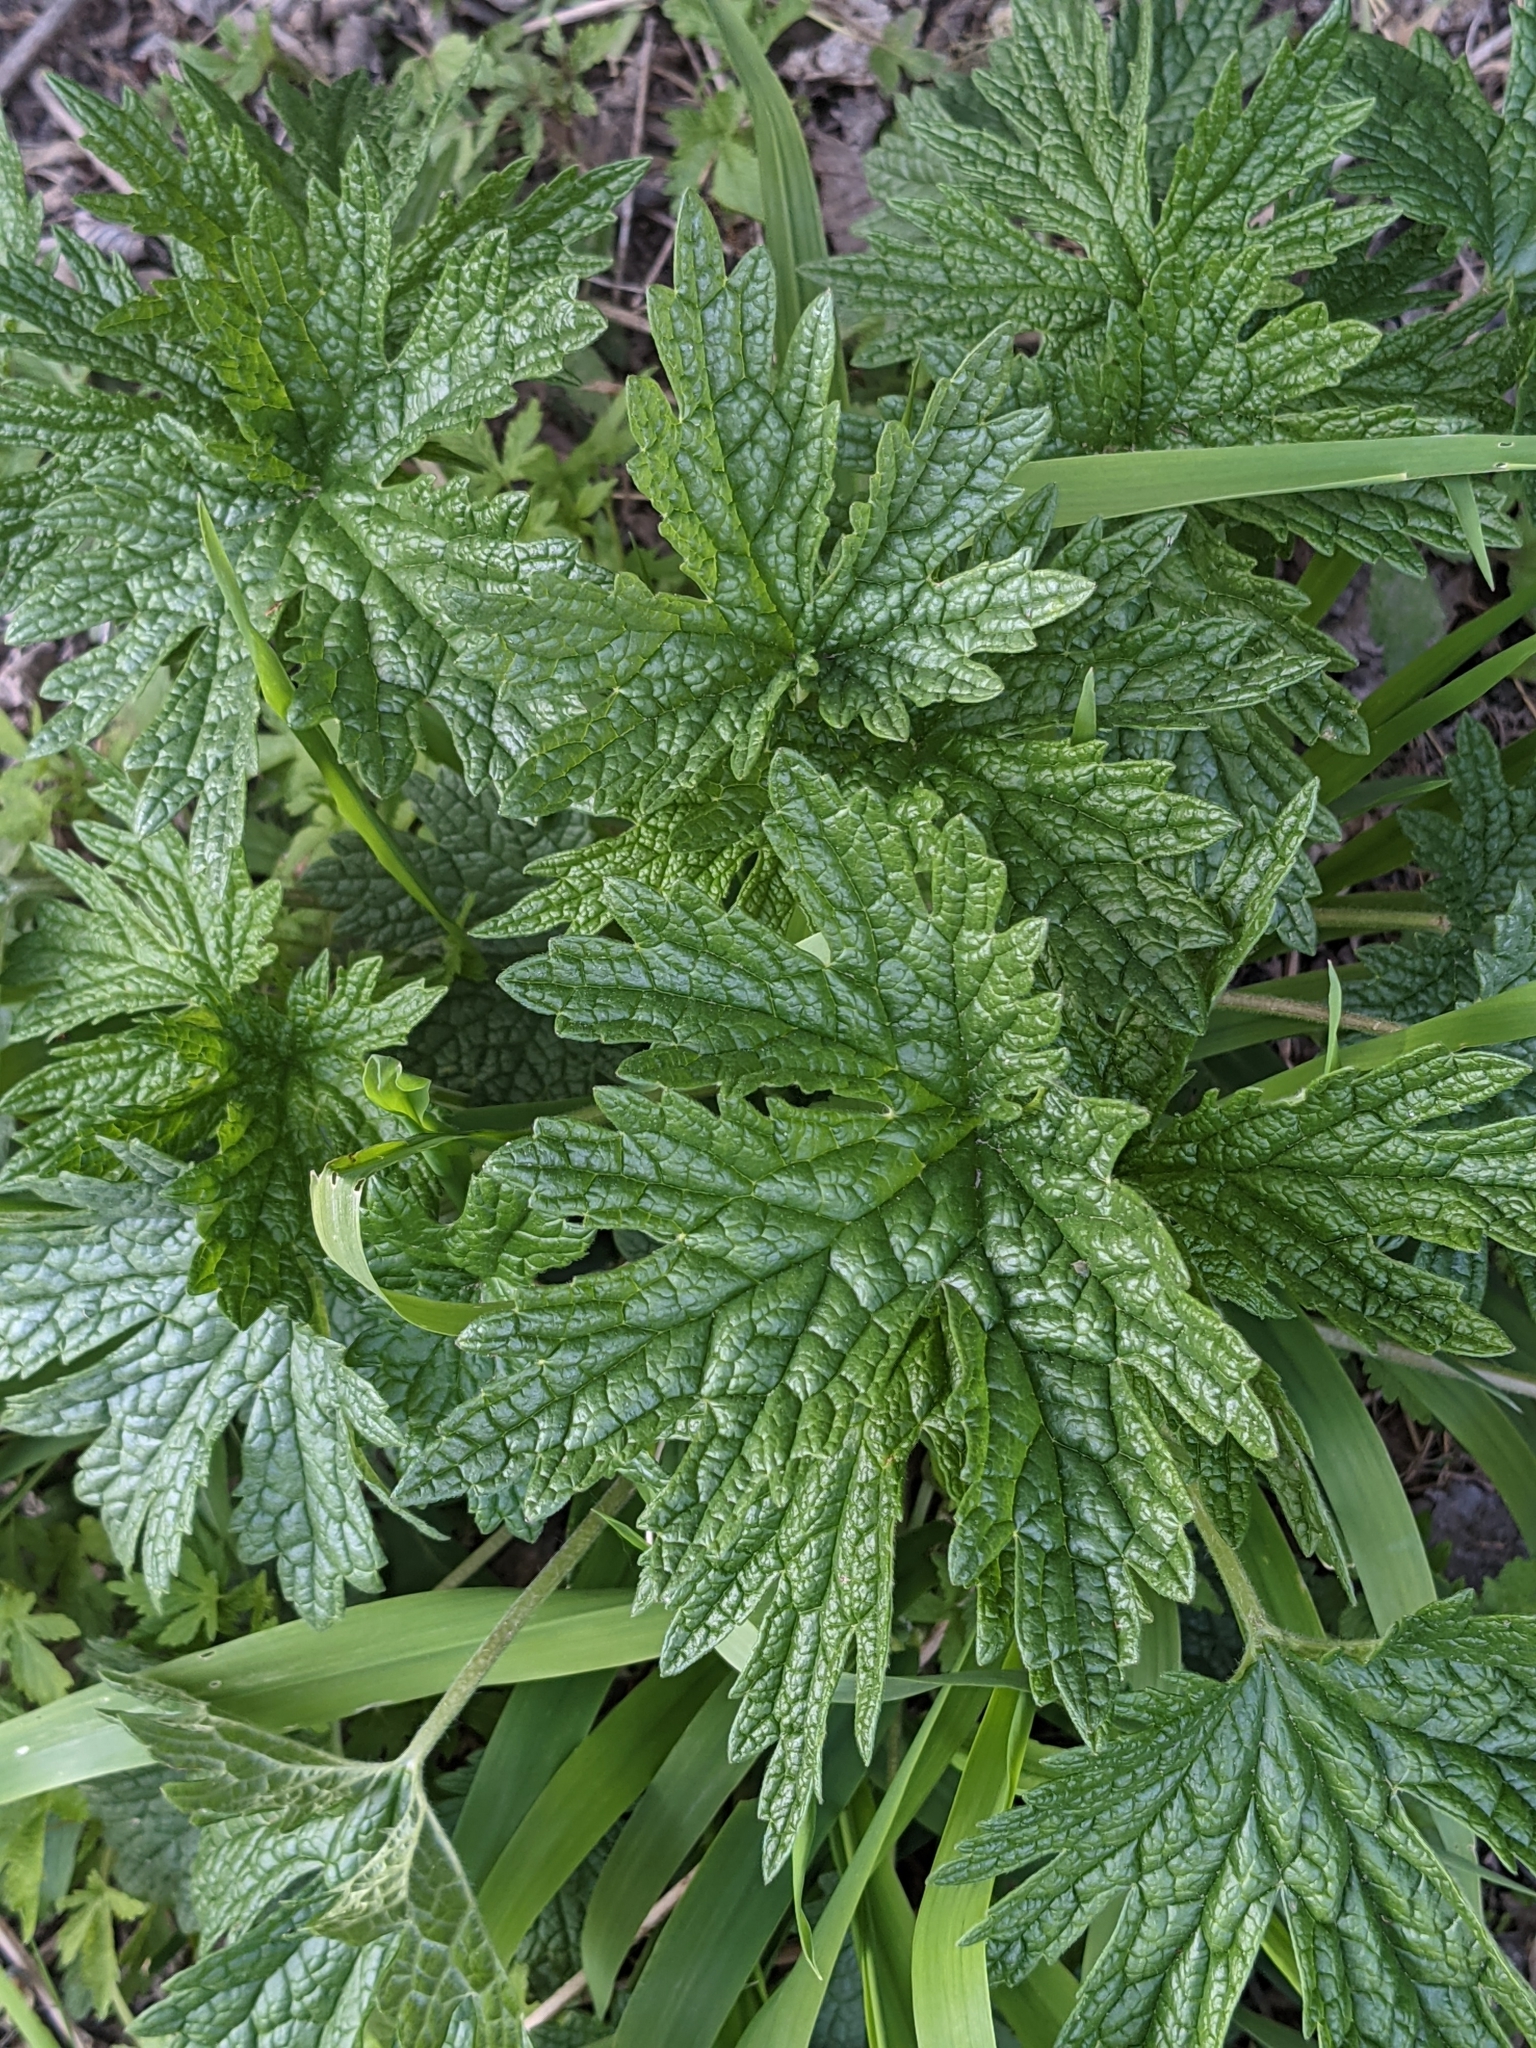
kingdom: Plantae
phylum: Tracheophyta
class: Magnoliopsida
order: Lamiales
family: Lamiaceae
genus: Leonurus
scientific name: Leonurus cardiaca
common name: Motherwort
